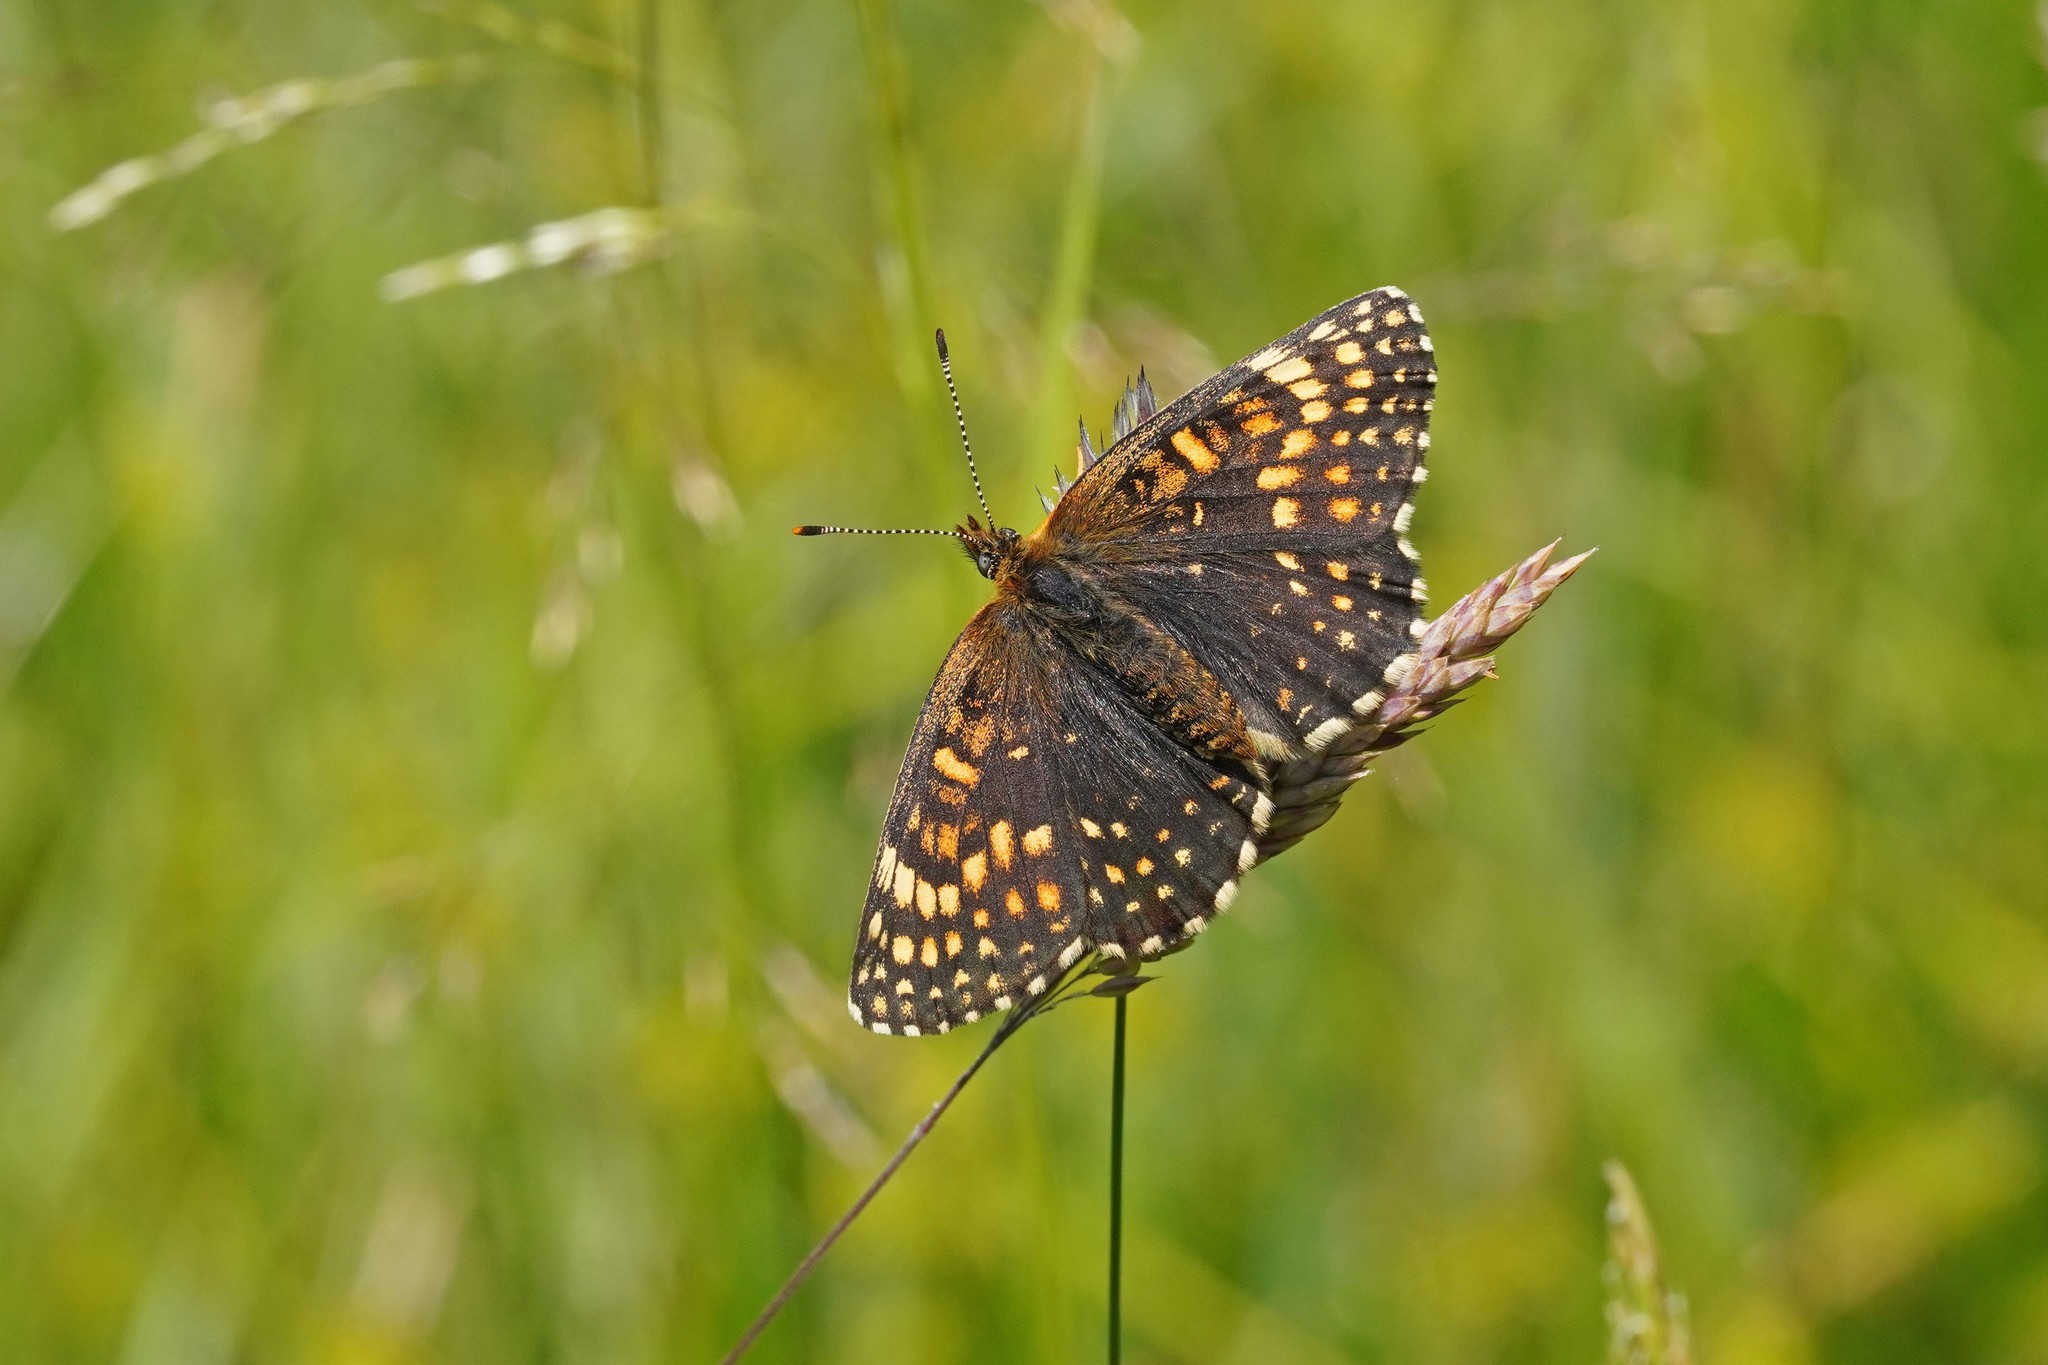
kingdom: Animalia
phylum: Arthropoda
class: Insecta
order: Lepidoptera
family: Nymphalidae
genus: Melitaea
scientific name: Melitaea diamina
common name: False heath fritillary
